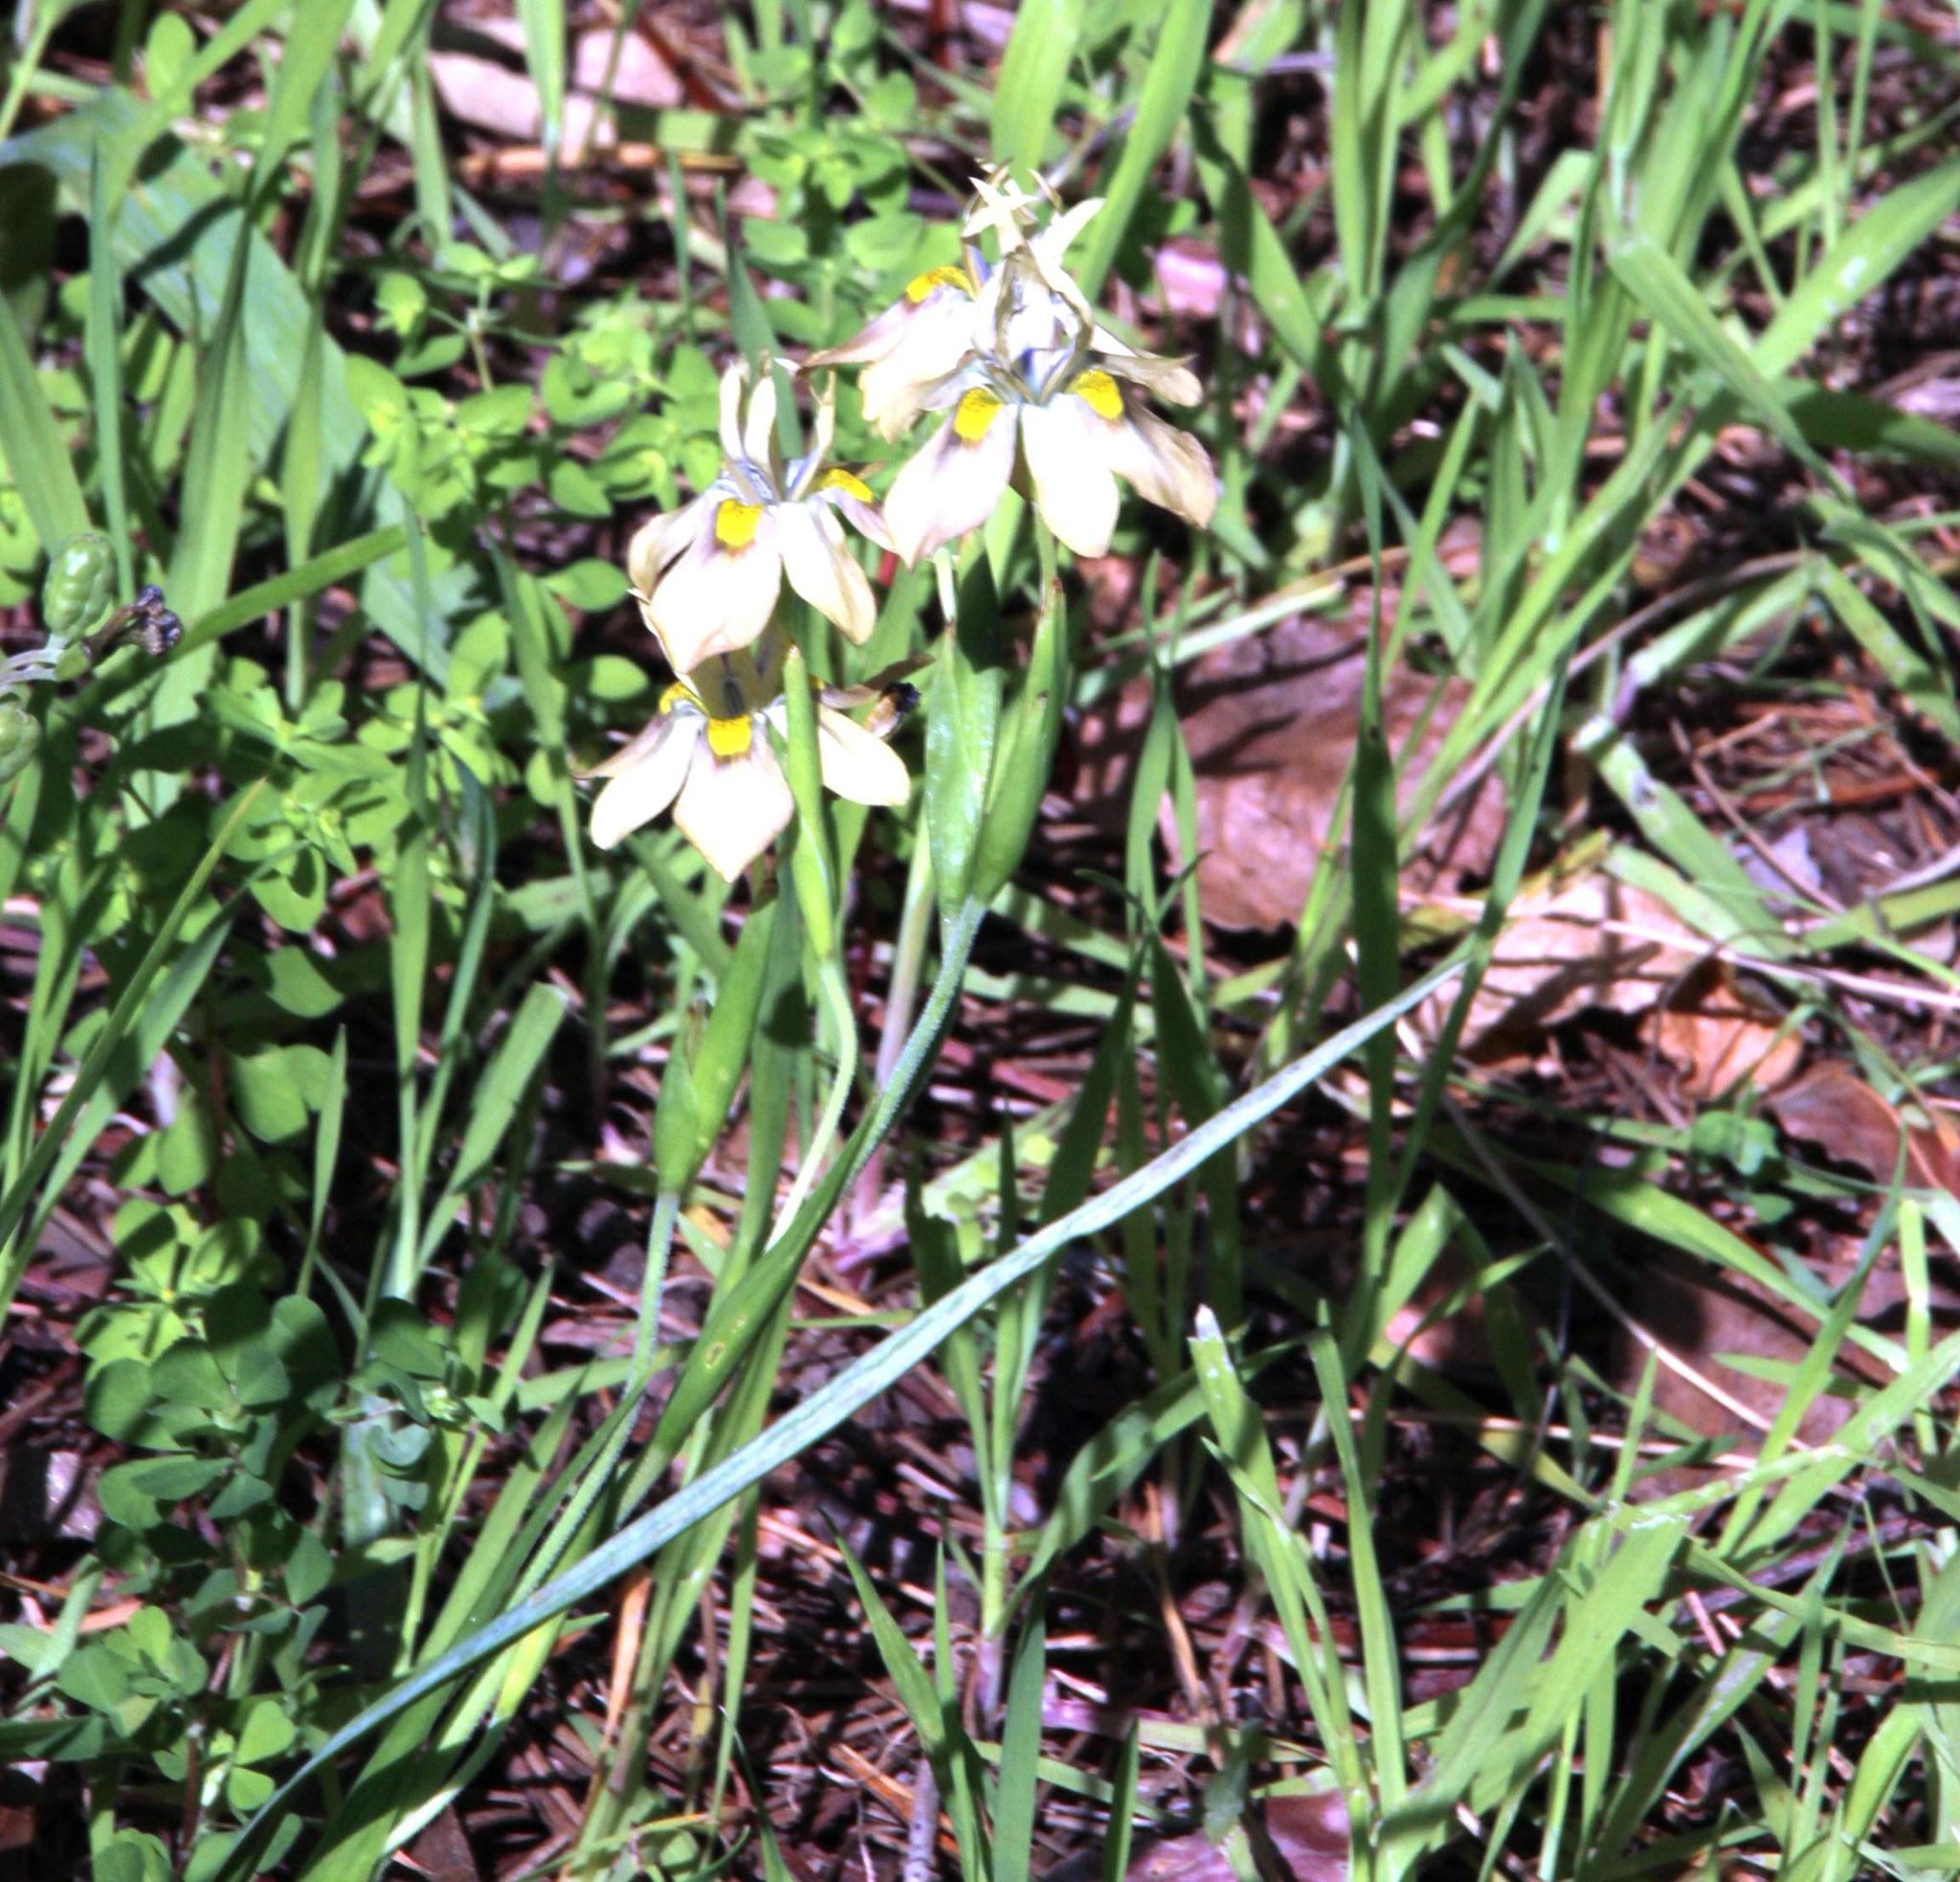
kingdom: Plantae
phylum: Tracheophyta
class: Liliopsida
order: Asparagales
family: Iridaceae
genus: Moraea
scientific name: Moraea vegeta
